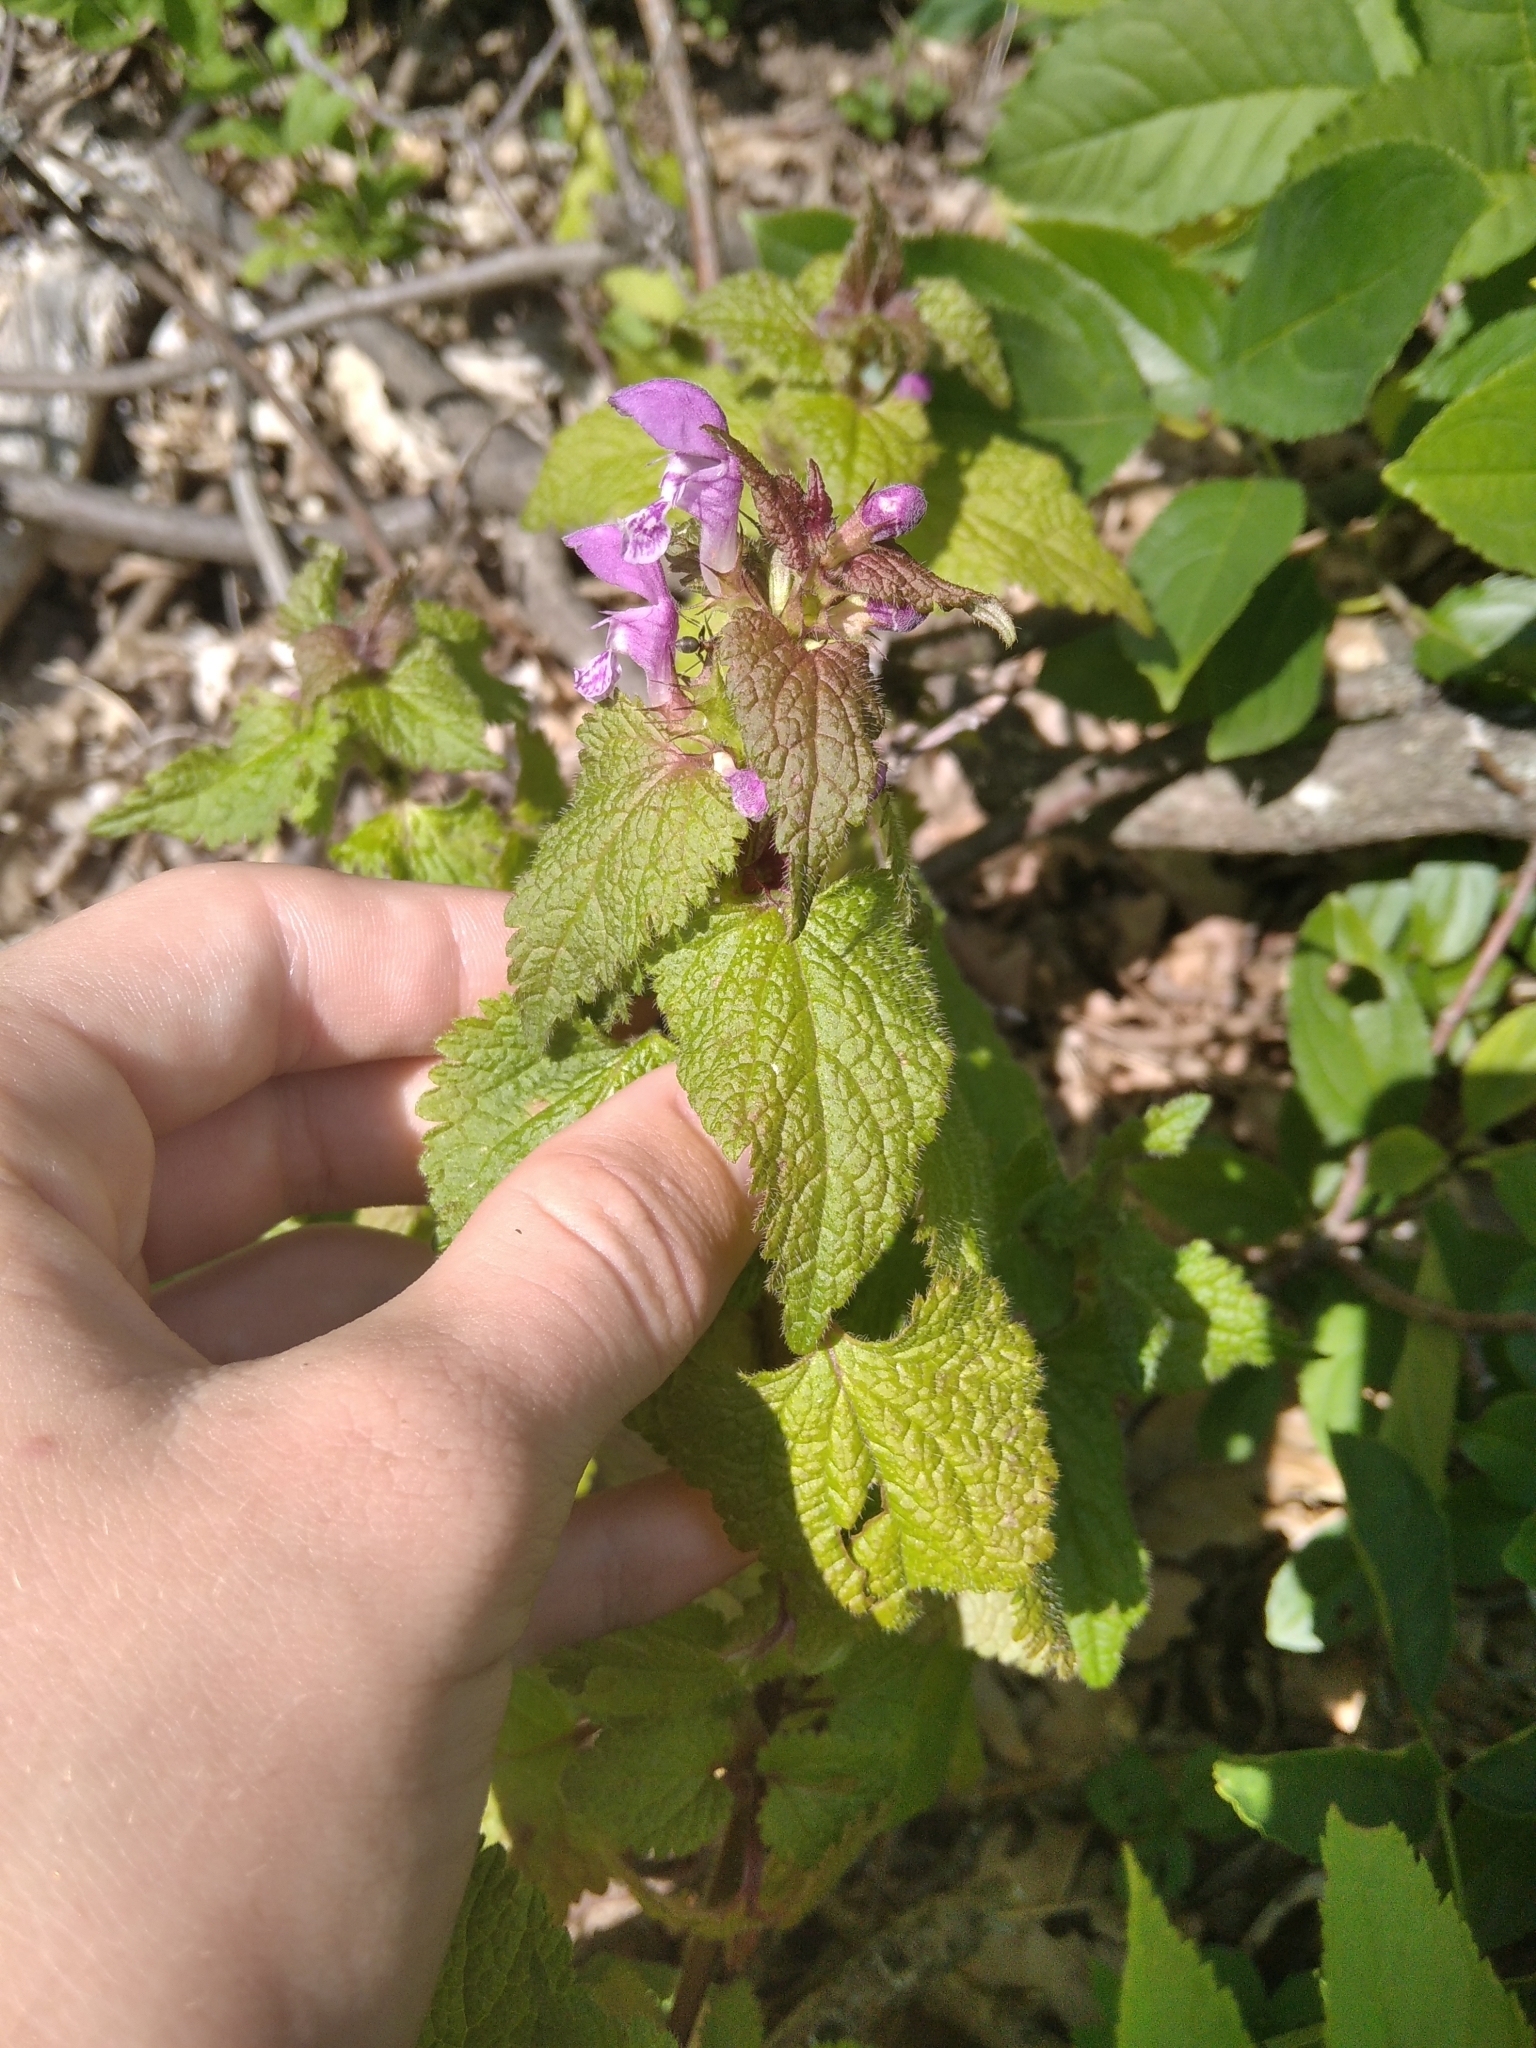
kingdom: Plantae
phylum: Tracheophyta
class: Magnoliopsida
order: Lamiales
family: Lamiaceae
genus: Lamium
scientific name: Lamium maculatum
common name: Spotted dead-nettle
